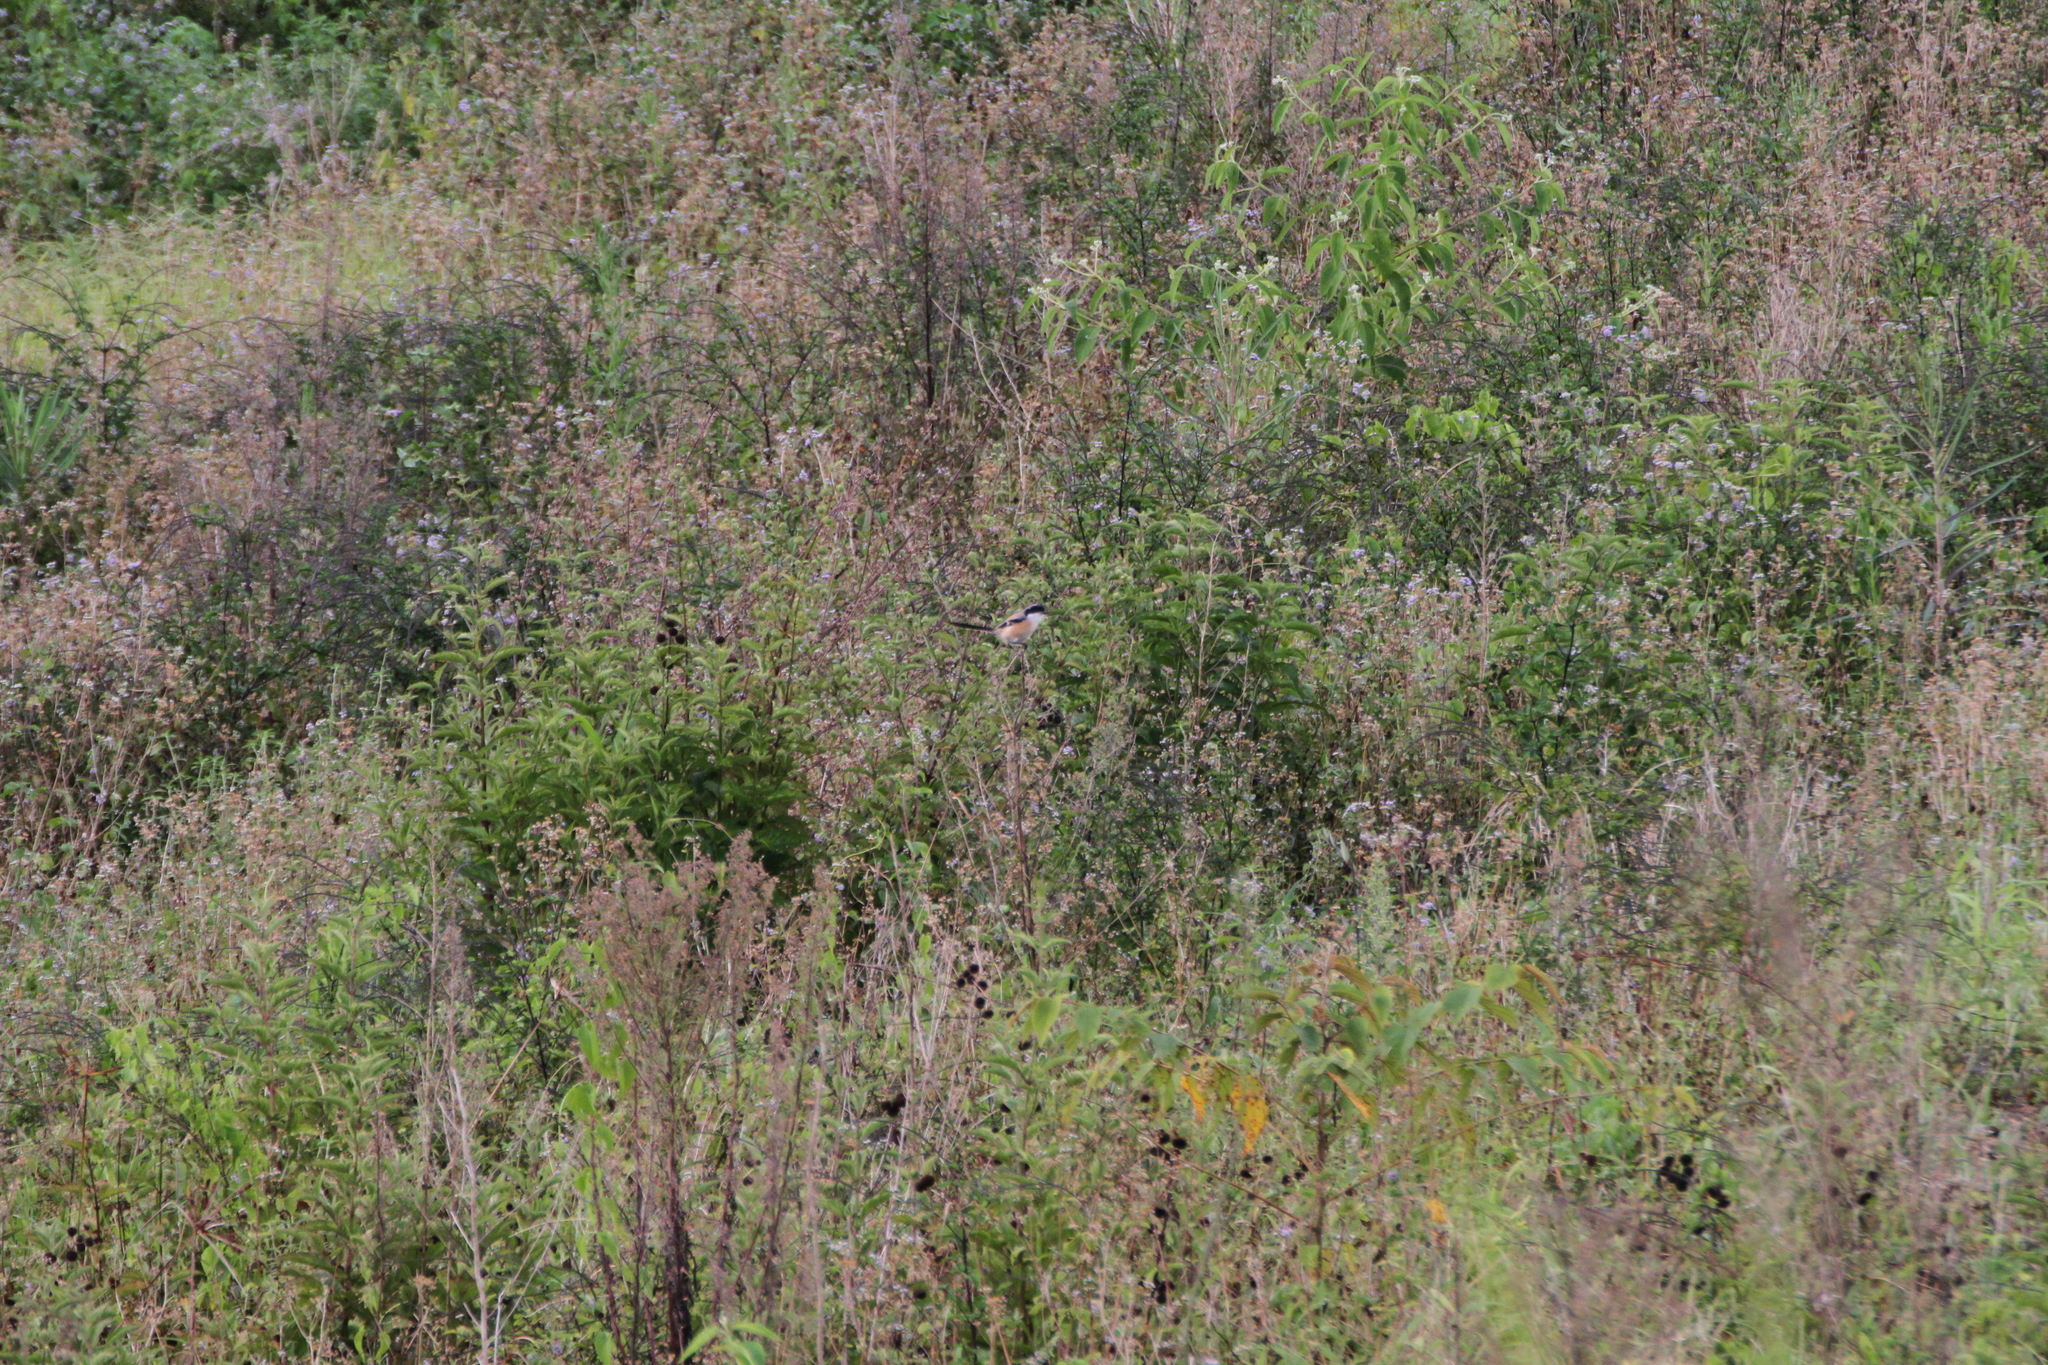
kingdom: Animalia
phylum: Chordata
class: Aves
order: Passeriformes
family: Laniidae
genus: Lanius
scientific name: Lanius schach
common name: Long-tailed shrike
